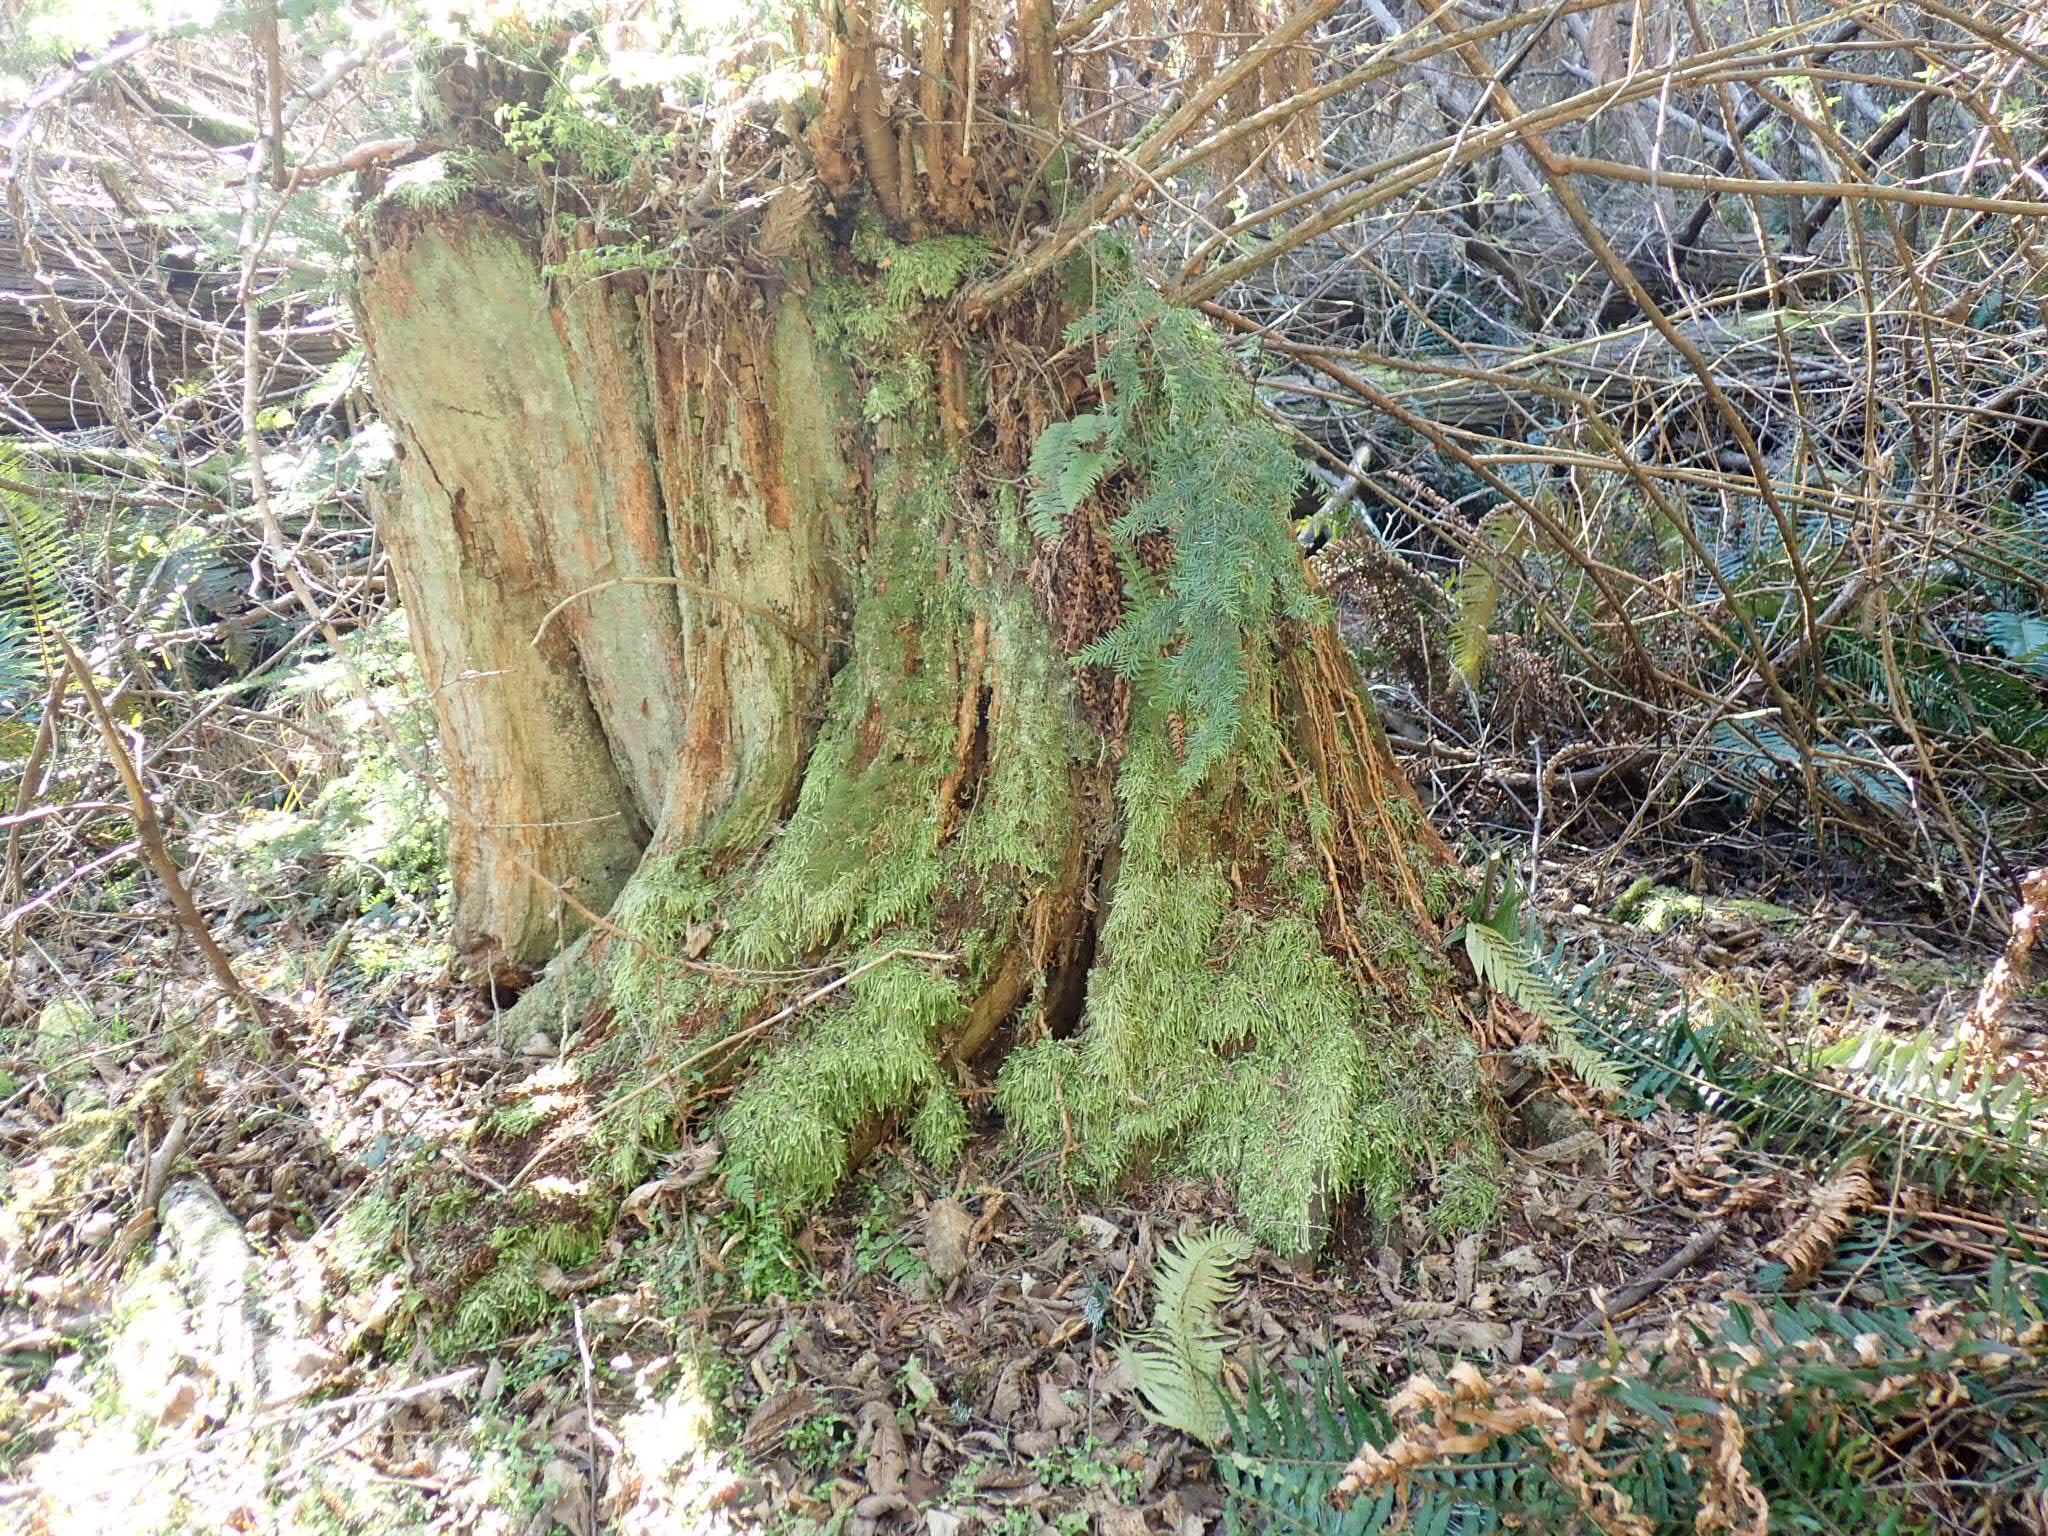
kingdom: Plantae
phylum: Bryophyta
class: Bryopsida
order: Hypnales
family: Plagiotheciaceae
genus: Plagiothecium
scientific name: Plagiothecium undulatum
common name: Waved silk-moss
